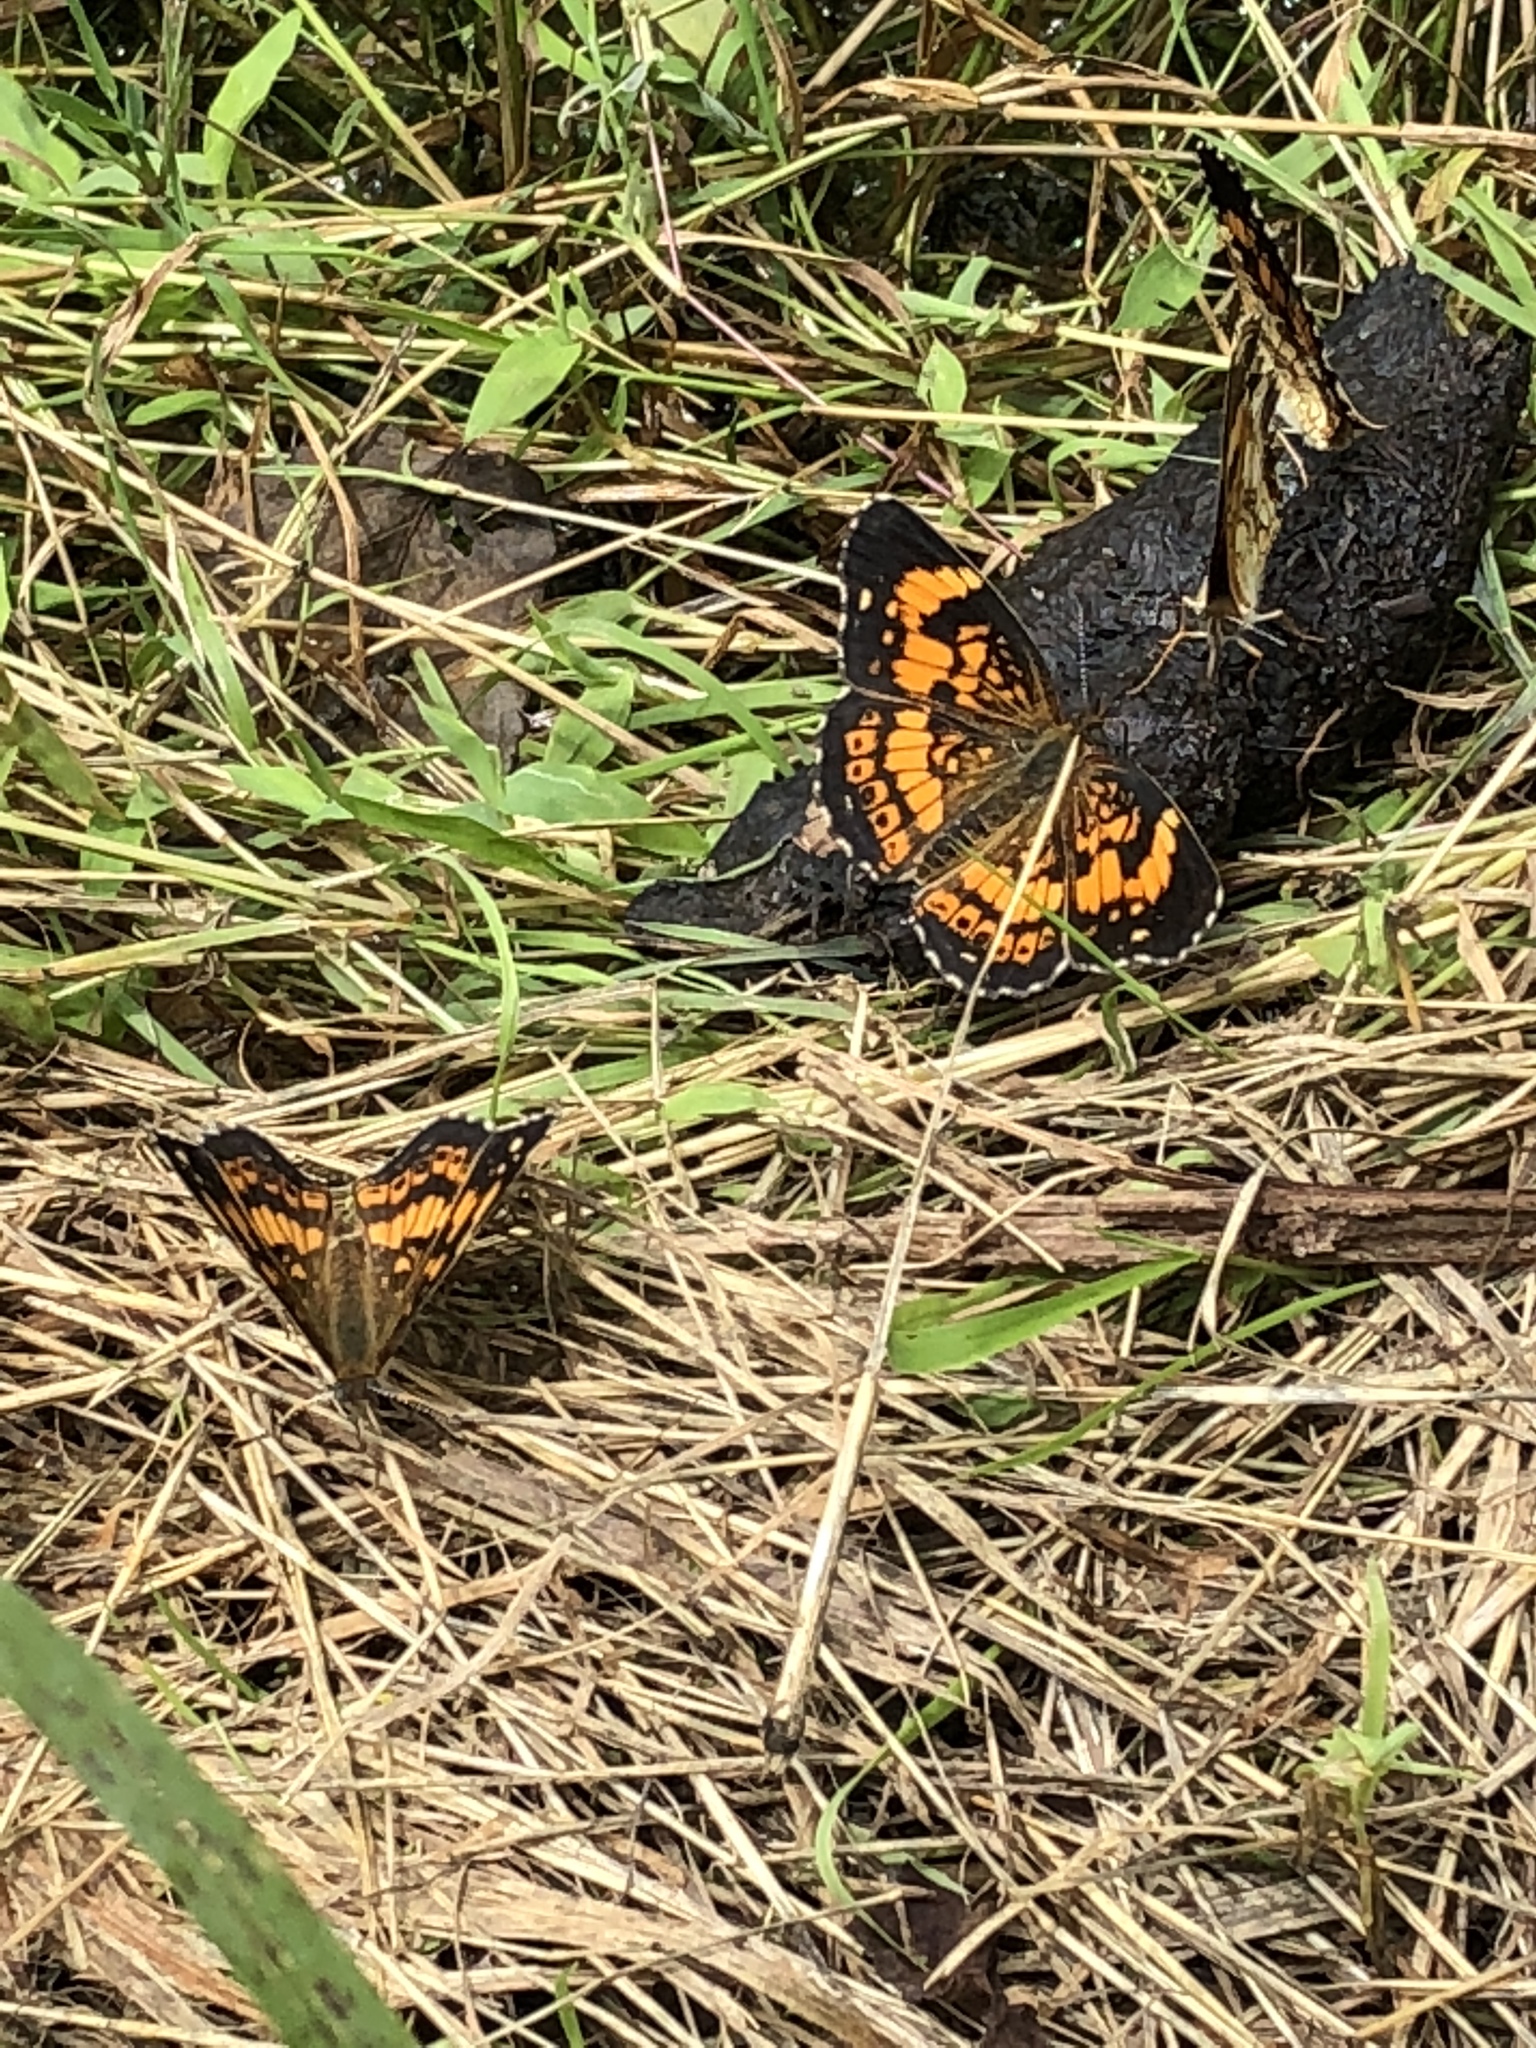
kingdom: Animalia
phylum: Arthropoda
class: Insecta
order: Lepidoptera
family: Nymphalidae
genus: Chlosyne
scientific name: Chlosyne nycteis
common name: Silvery checkerspot
